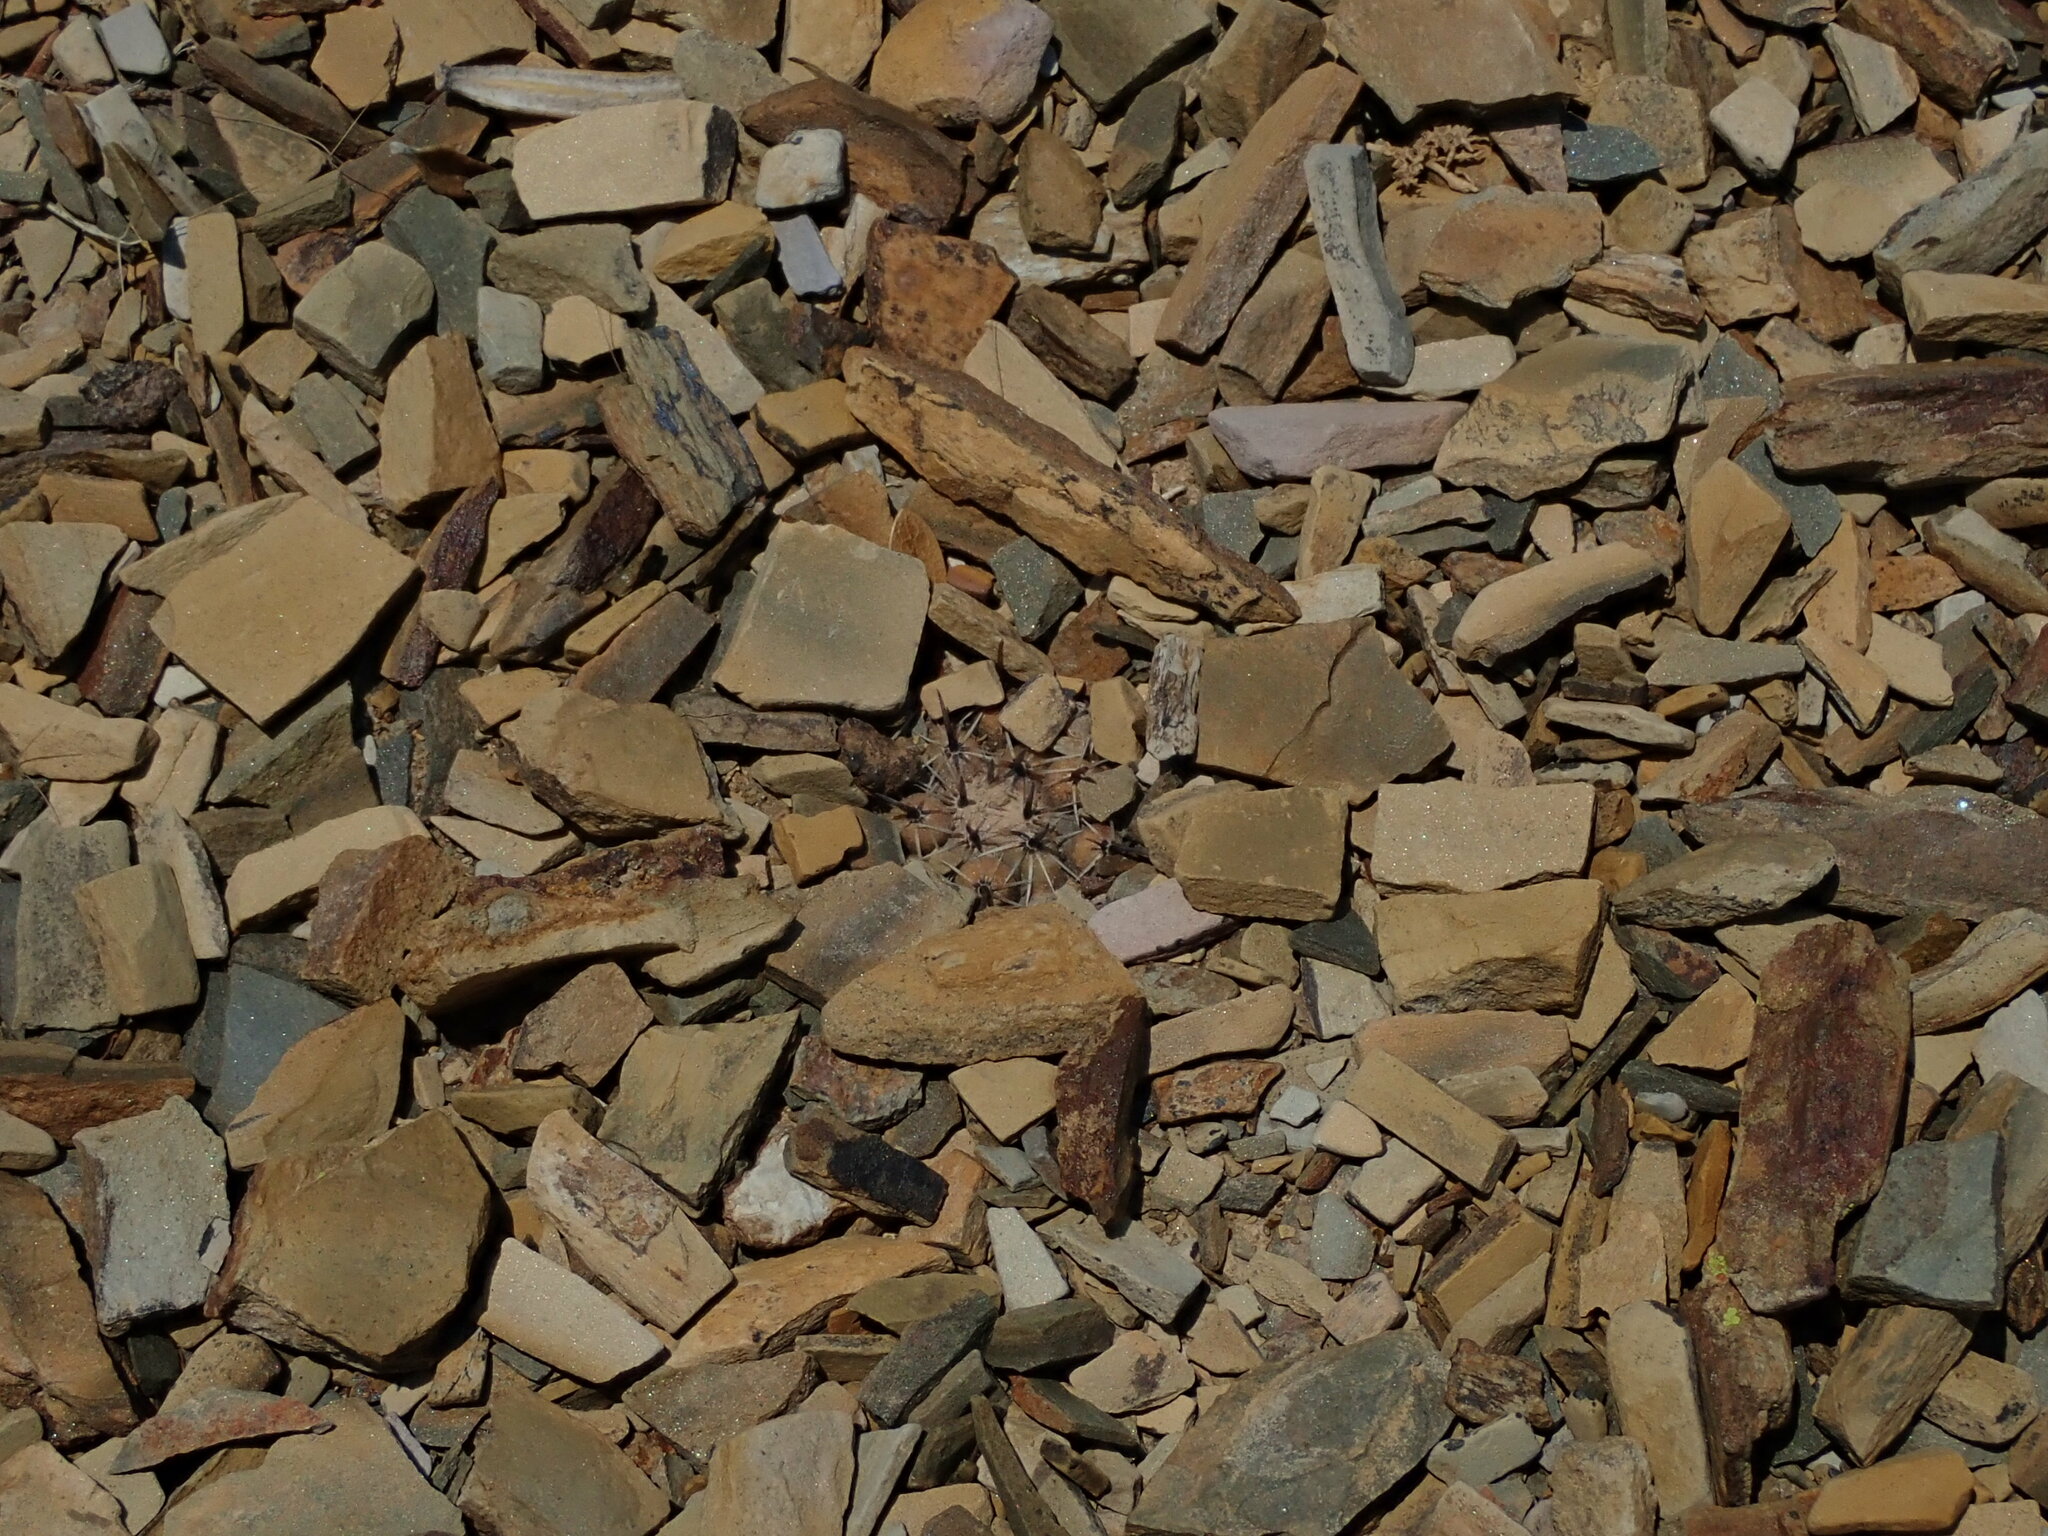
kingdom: Plantae
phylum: Tracheophyta
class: Magnoliopsida
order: Caryophyllales
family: Cactaceae
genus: Parodia
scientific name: Parodia subterranea
